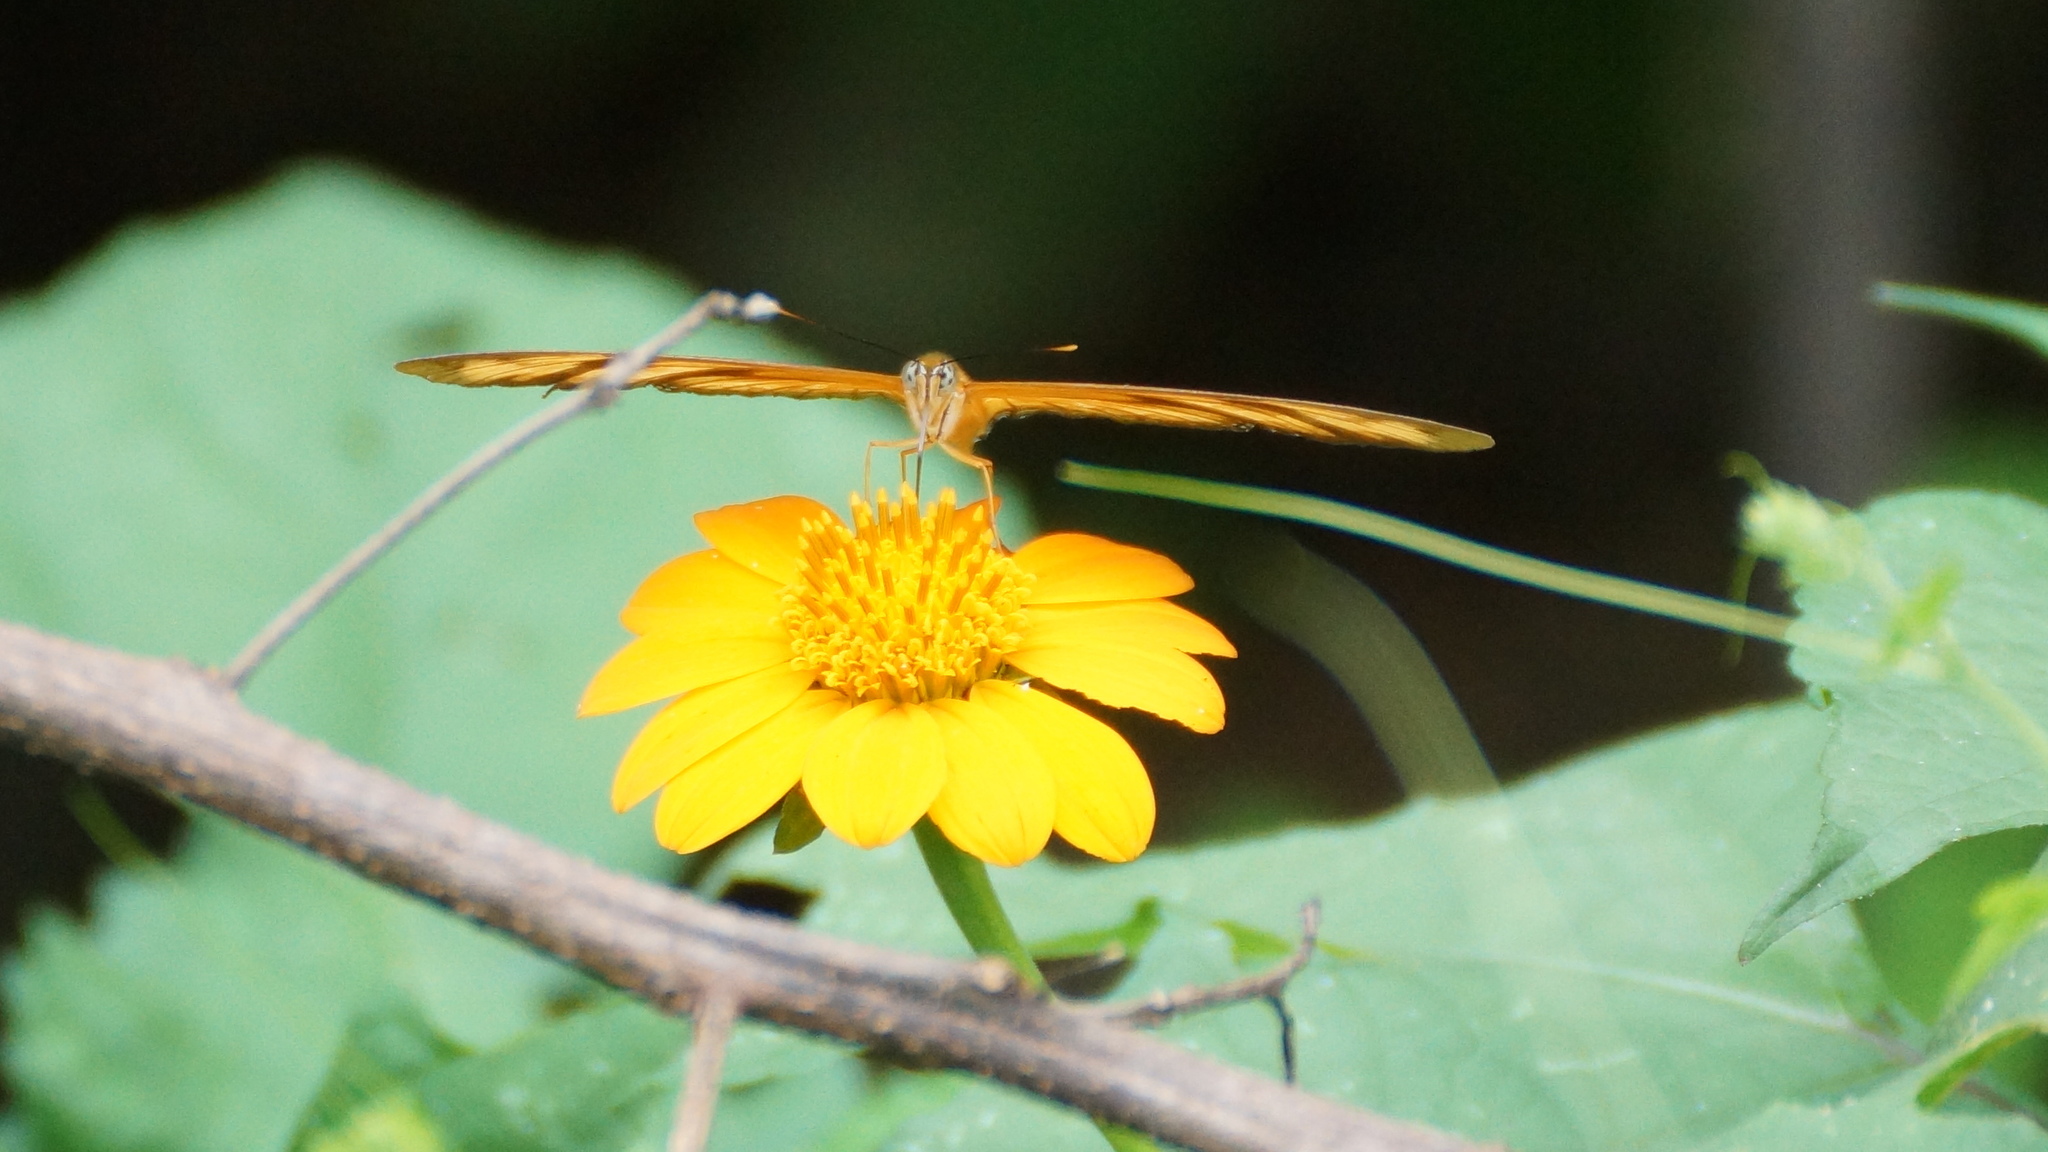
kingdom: Animalia
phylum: Arthropoda
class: Insecta
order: Lepidoptera
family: Nymphalidae
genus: Dryas
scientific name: Dryas iulia
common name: Flambeau
